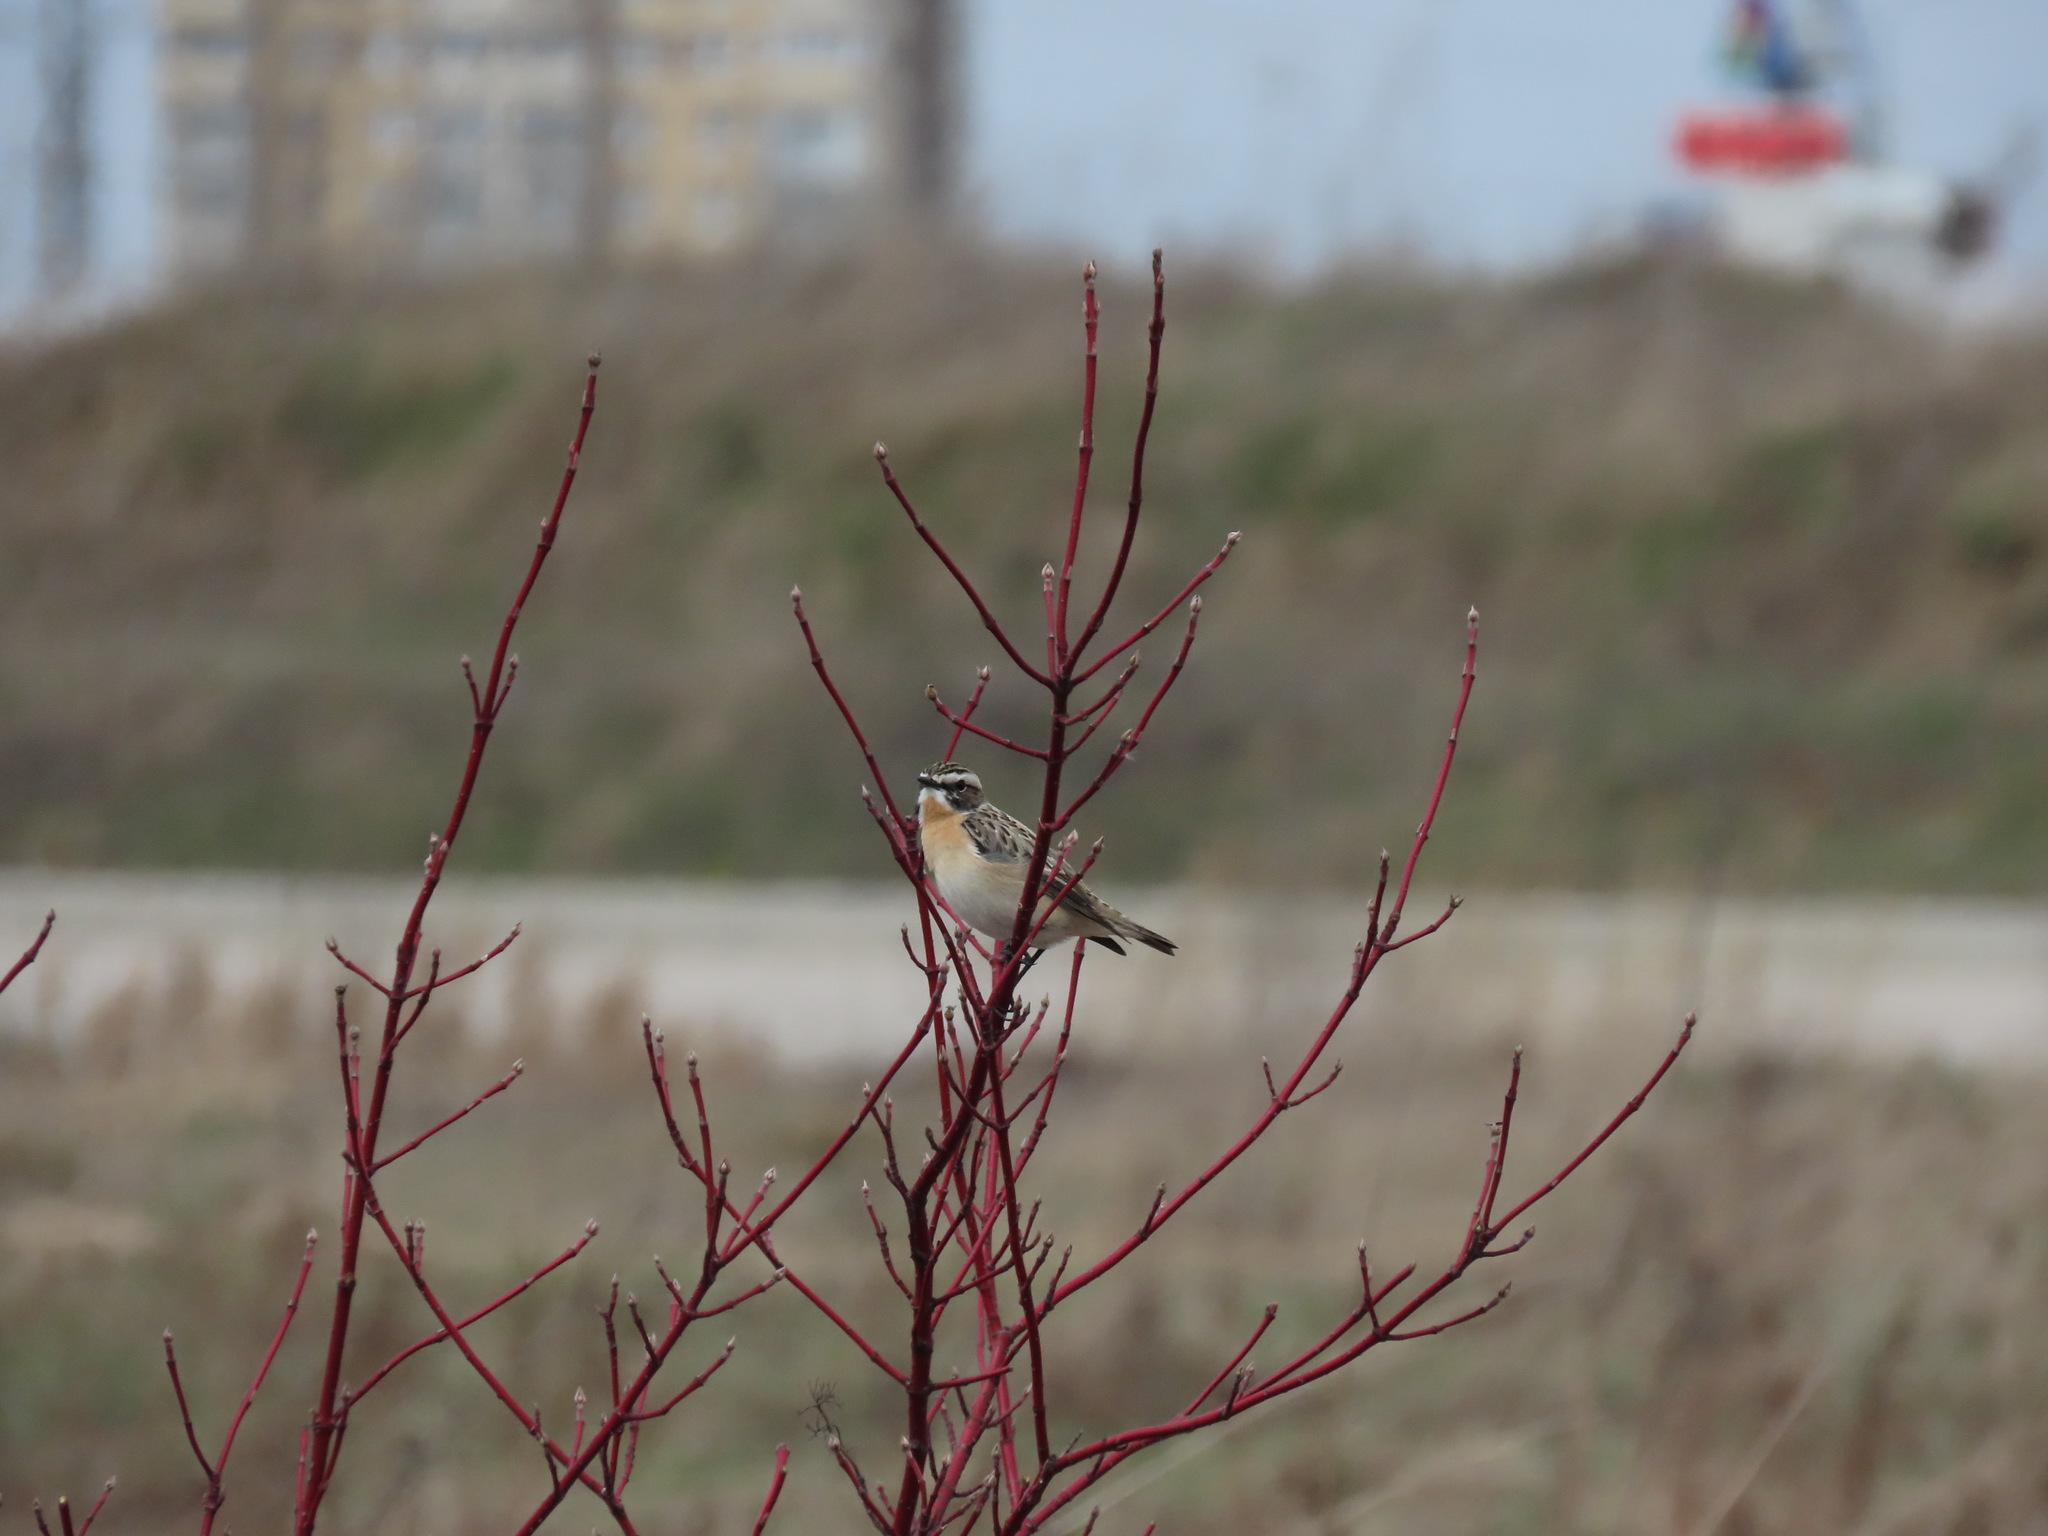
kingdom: Animalia
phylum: Chordata
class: Aves
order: Passeriformes
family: Muscicapidae
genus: Saxicola
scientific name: Saxicola rubetra
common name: Whinchat
